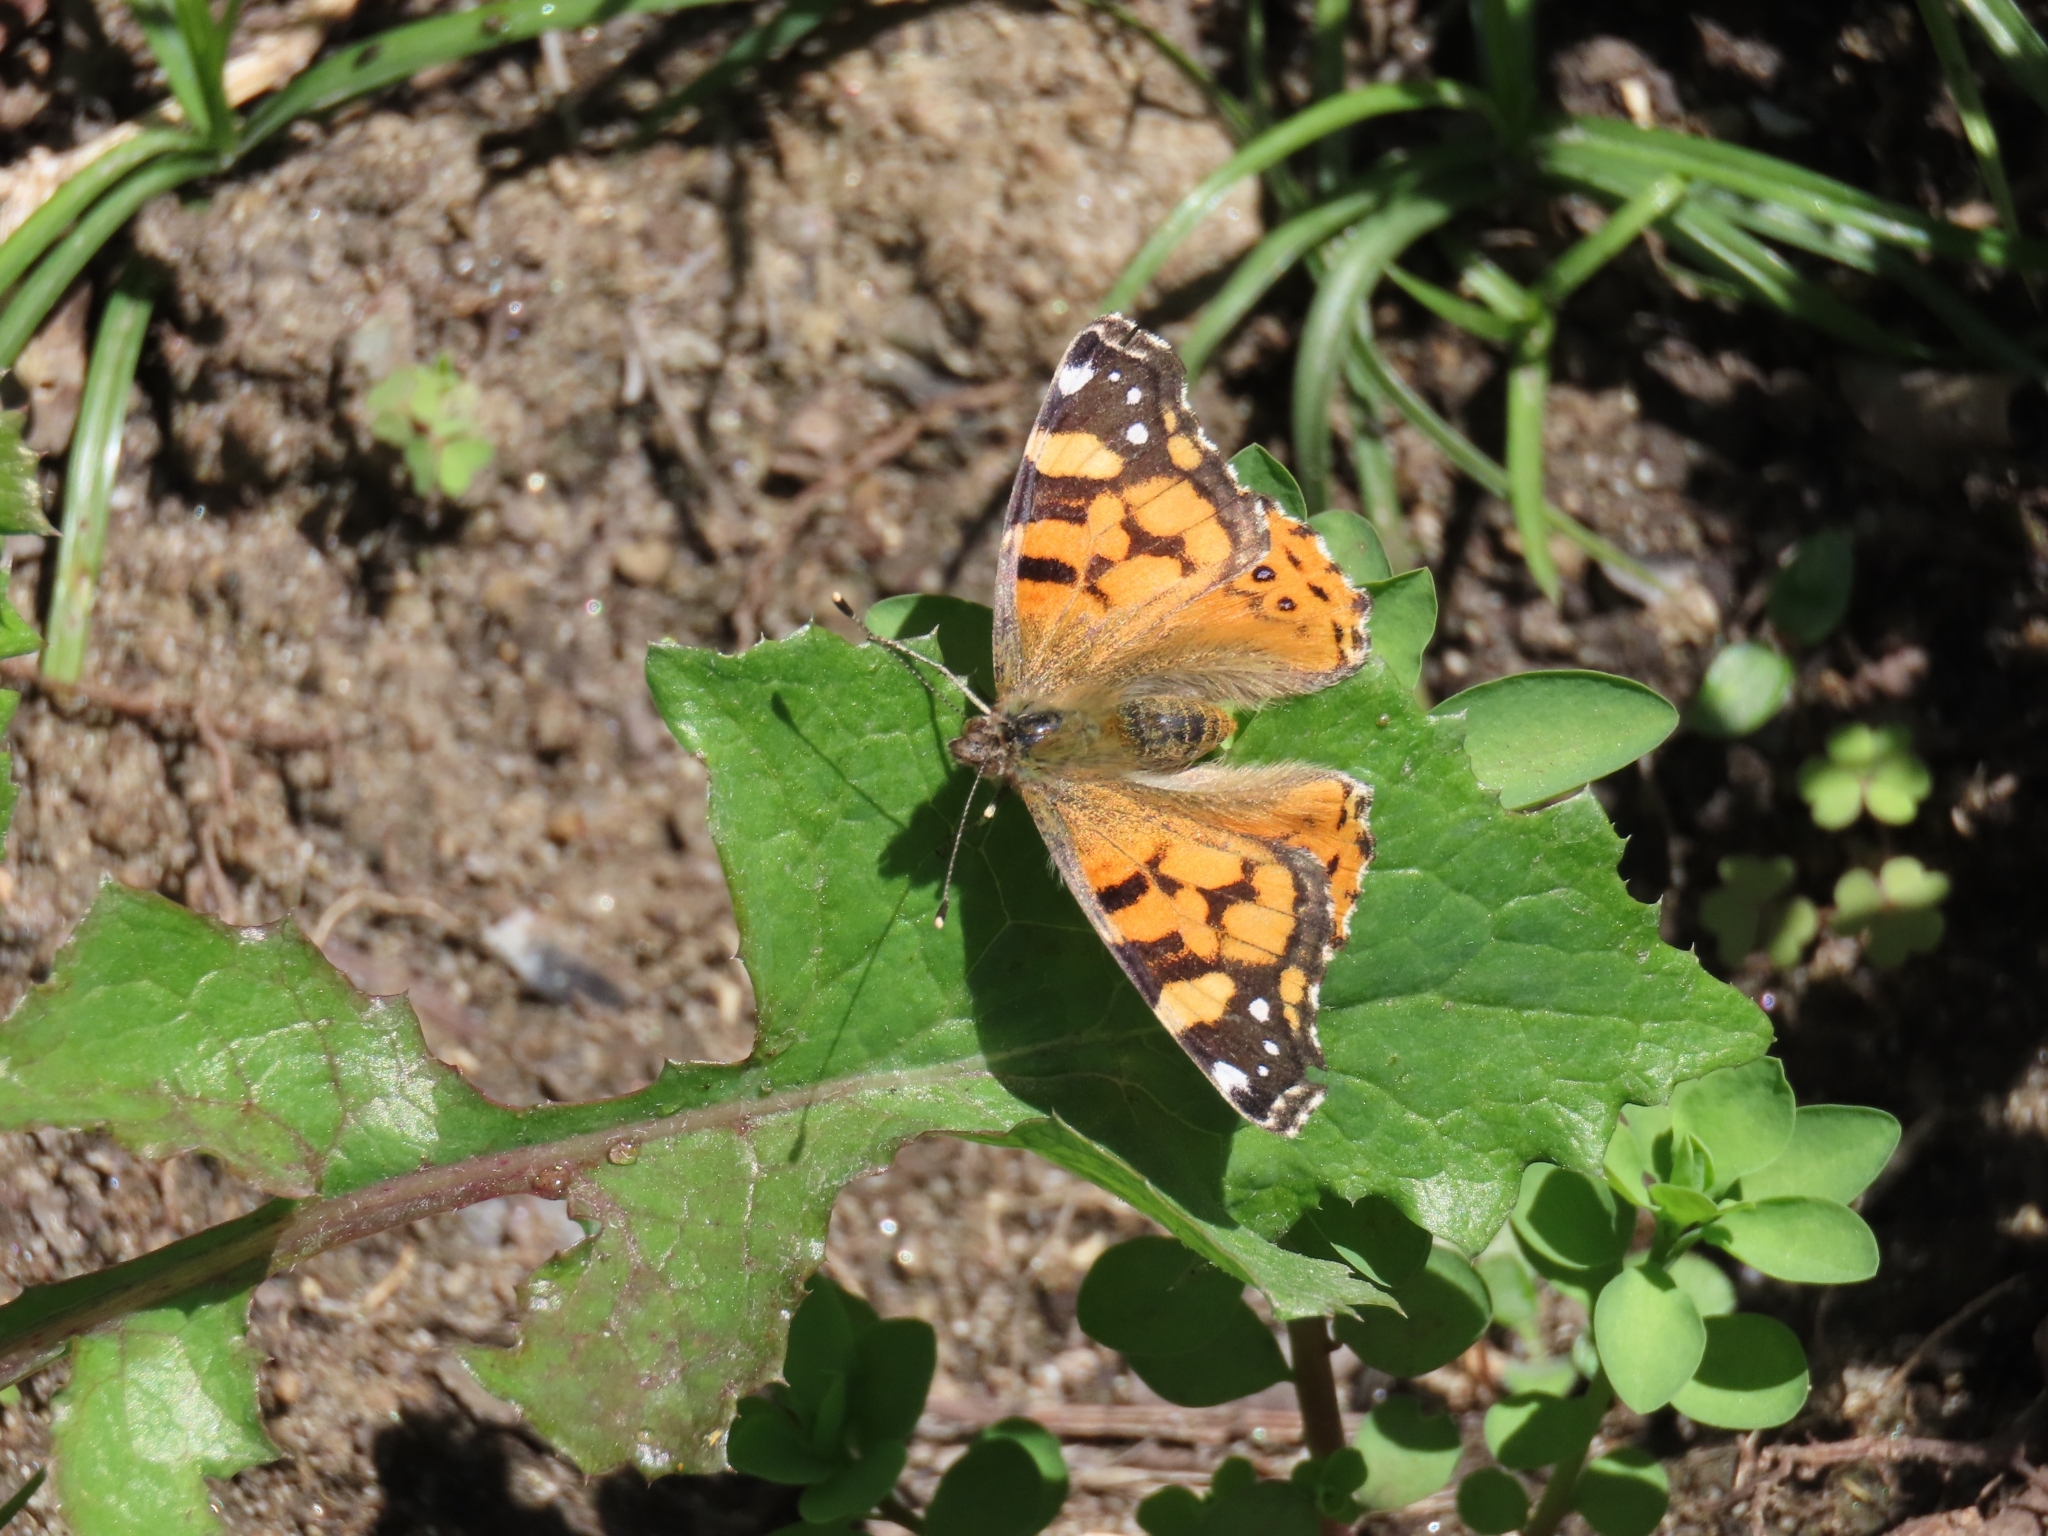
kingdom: Animalia
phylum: Arthropoda
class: Insecta
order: Lepidoptera
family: Nymphalidae
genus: Vanessa
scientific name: Vanessa annabella
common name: West coast lady
